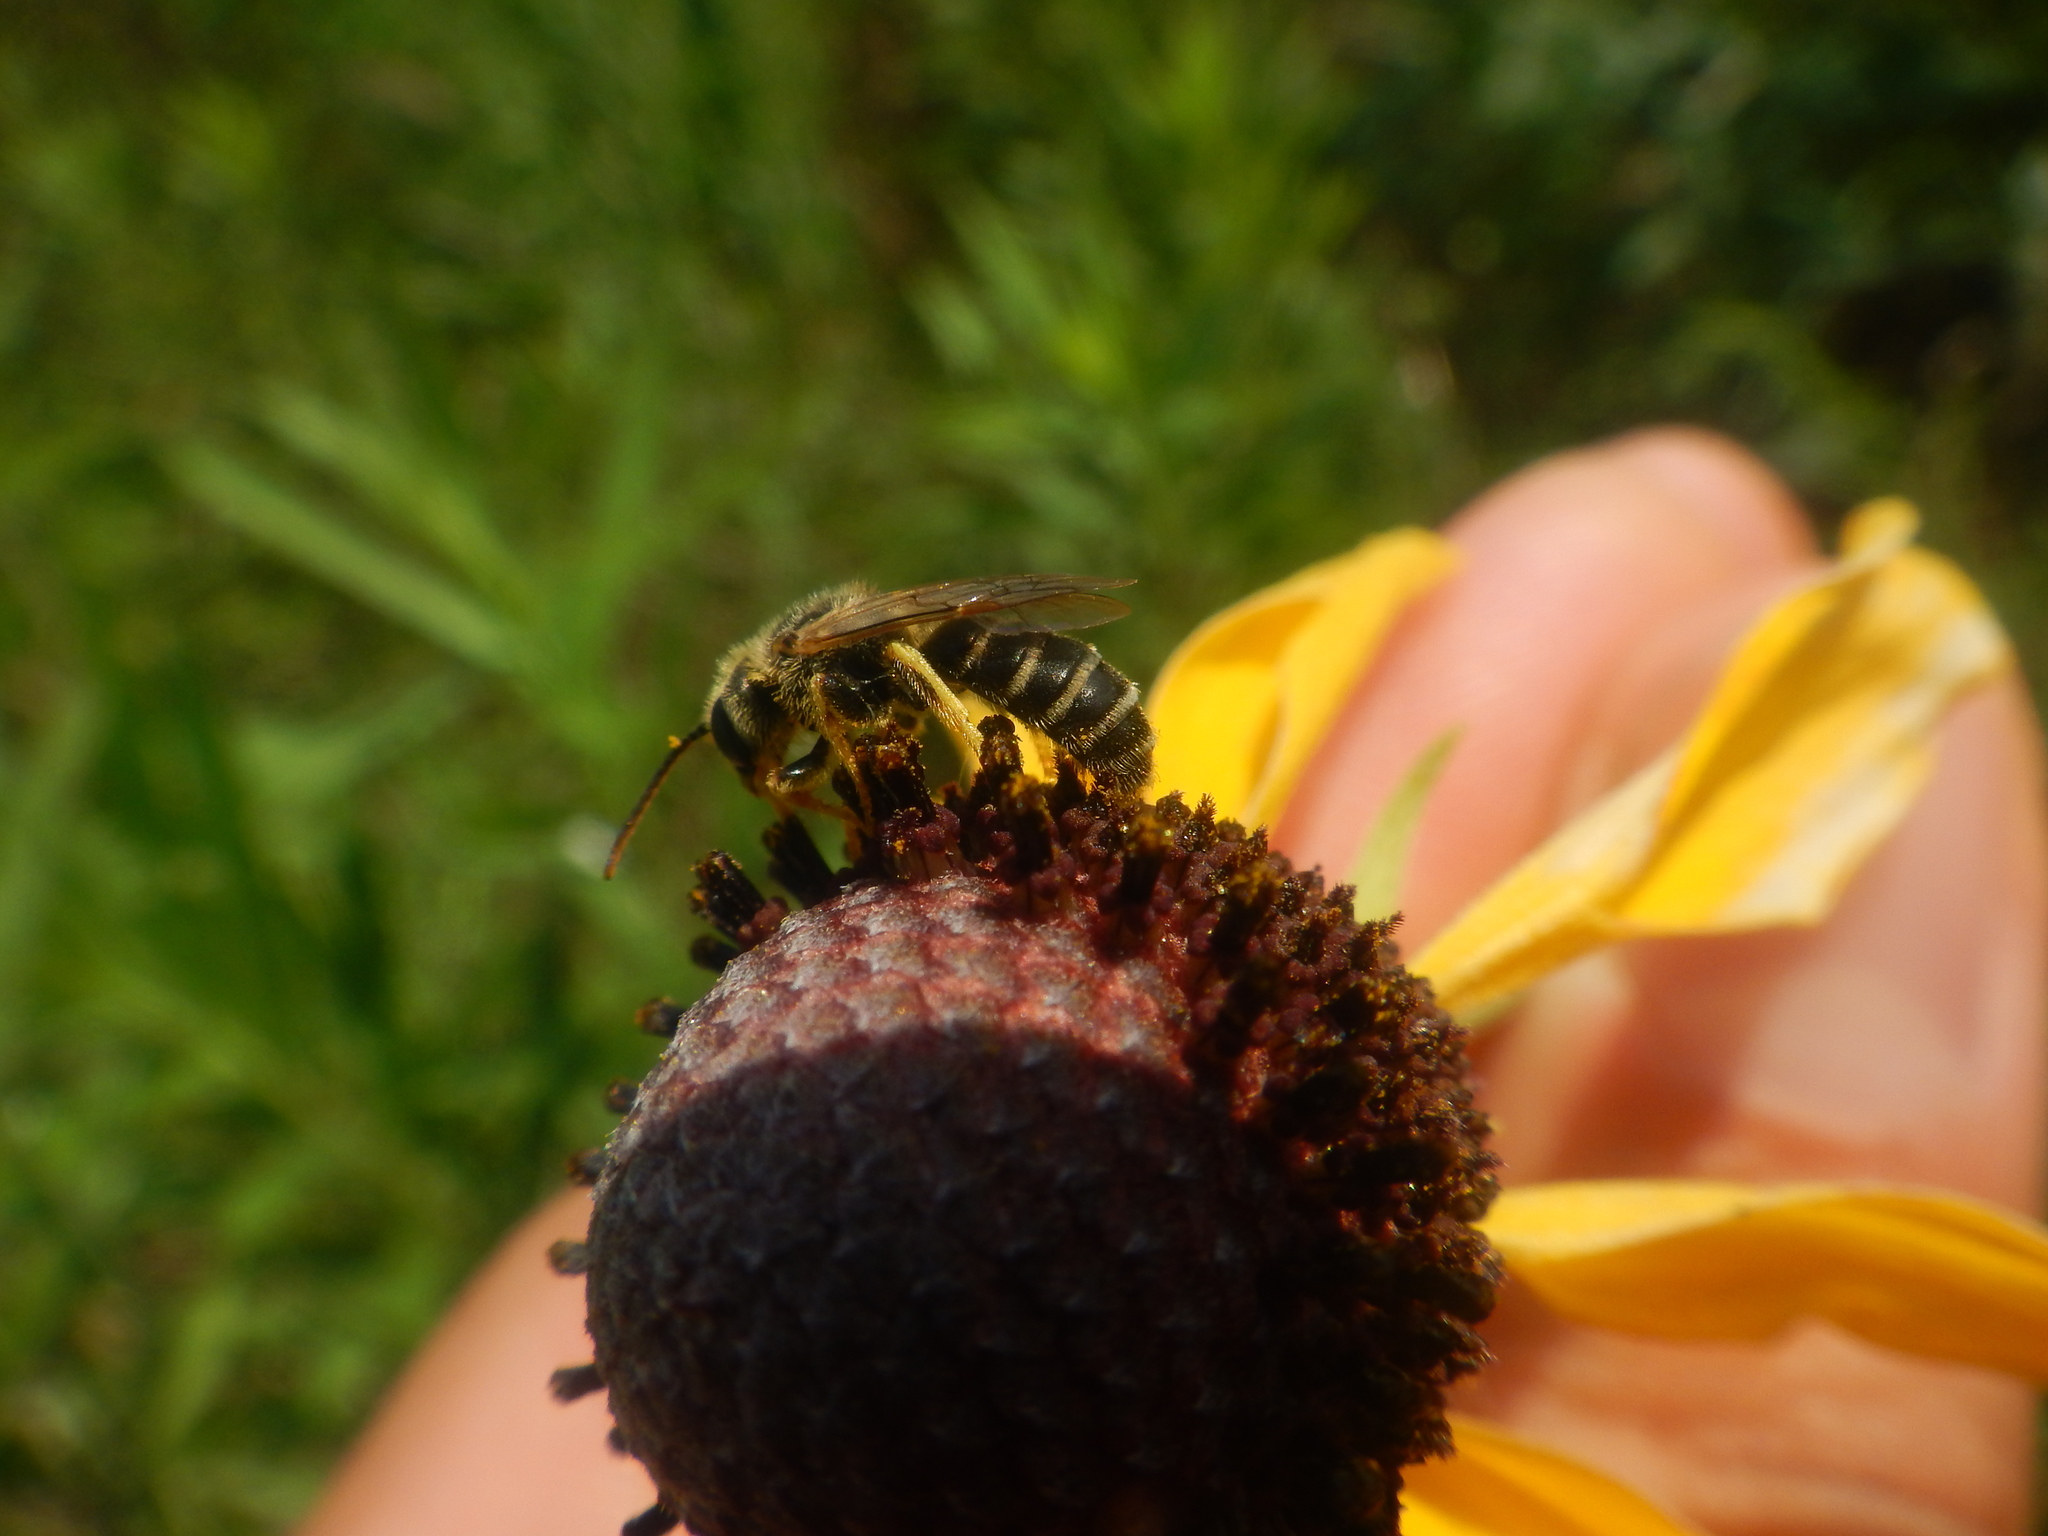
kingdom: Animalia
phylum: Arthropoda
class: Insecta
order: Hymenoptera
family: Halictidae
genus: Halictus
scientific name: Halictus ligatus
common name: Ligated furrow bee
